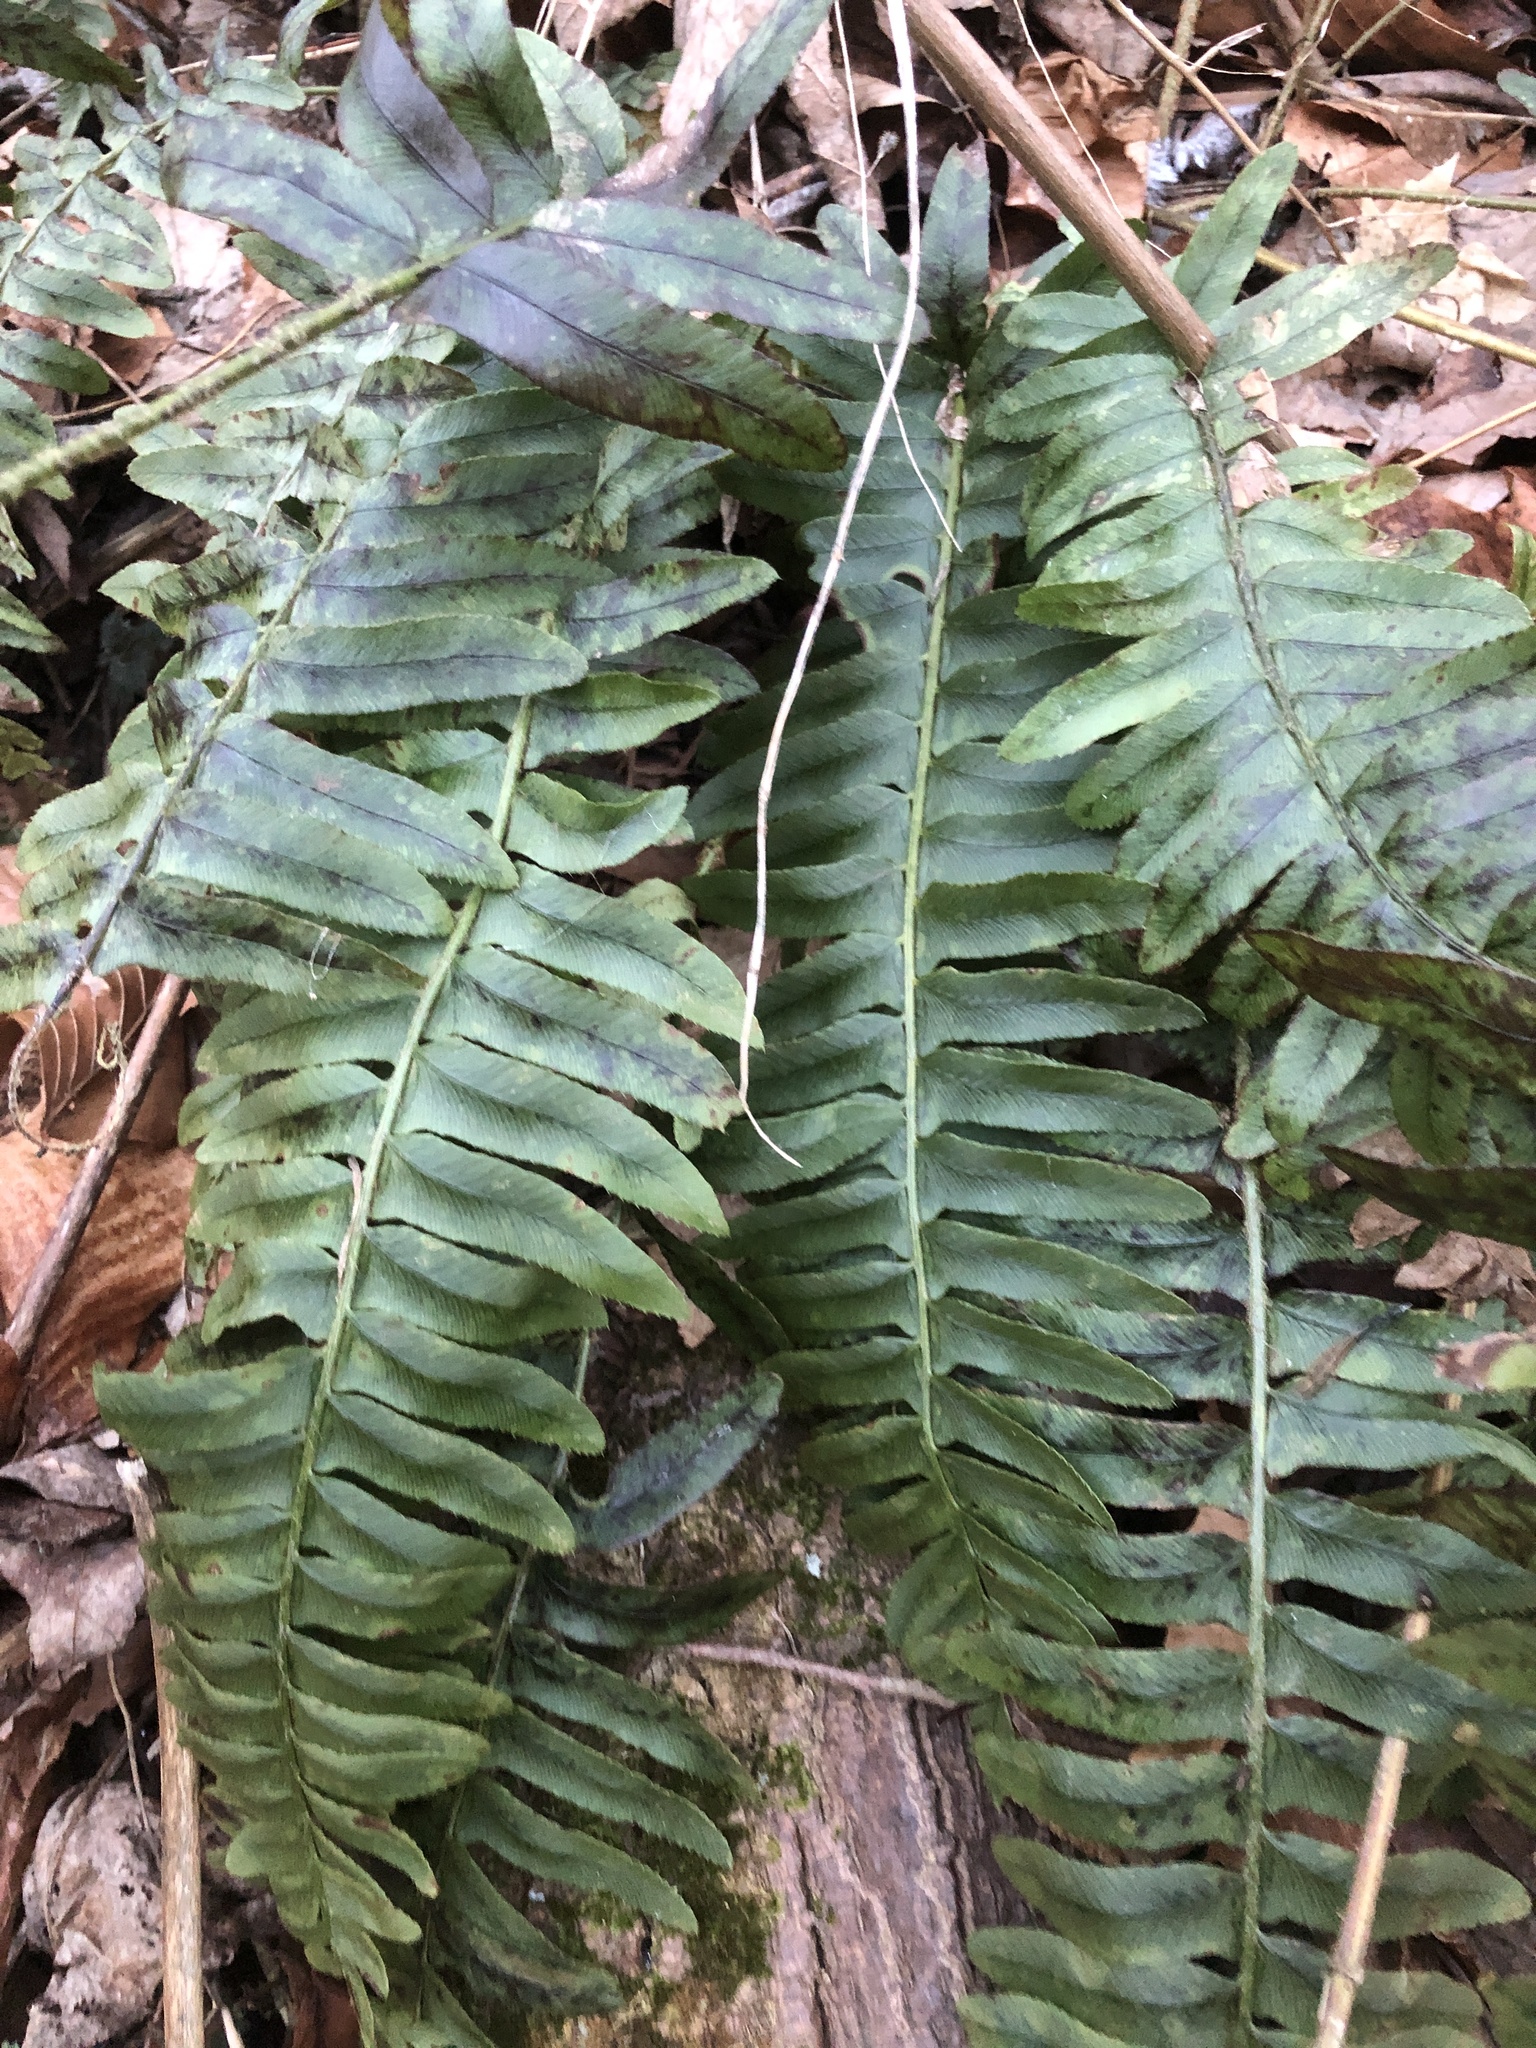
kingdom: Plantae
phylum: Tracheophyta
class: Polypodiopsida
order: Polypodiales
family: Dryopteridaceae
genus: Polystichum
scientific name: Polystichum acrostichoides
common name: Christmas fern
